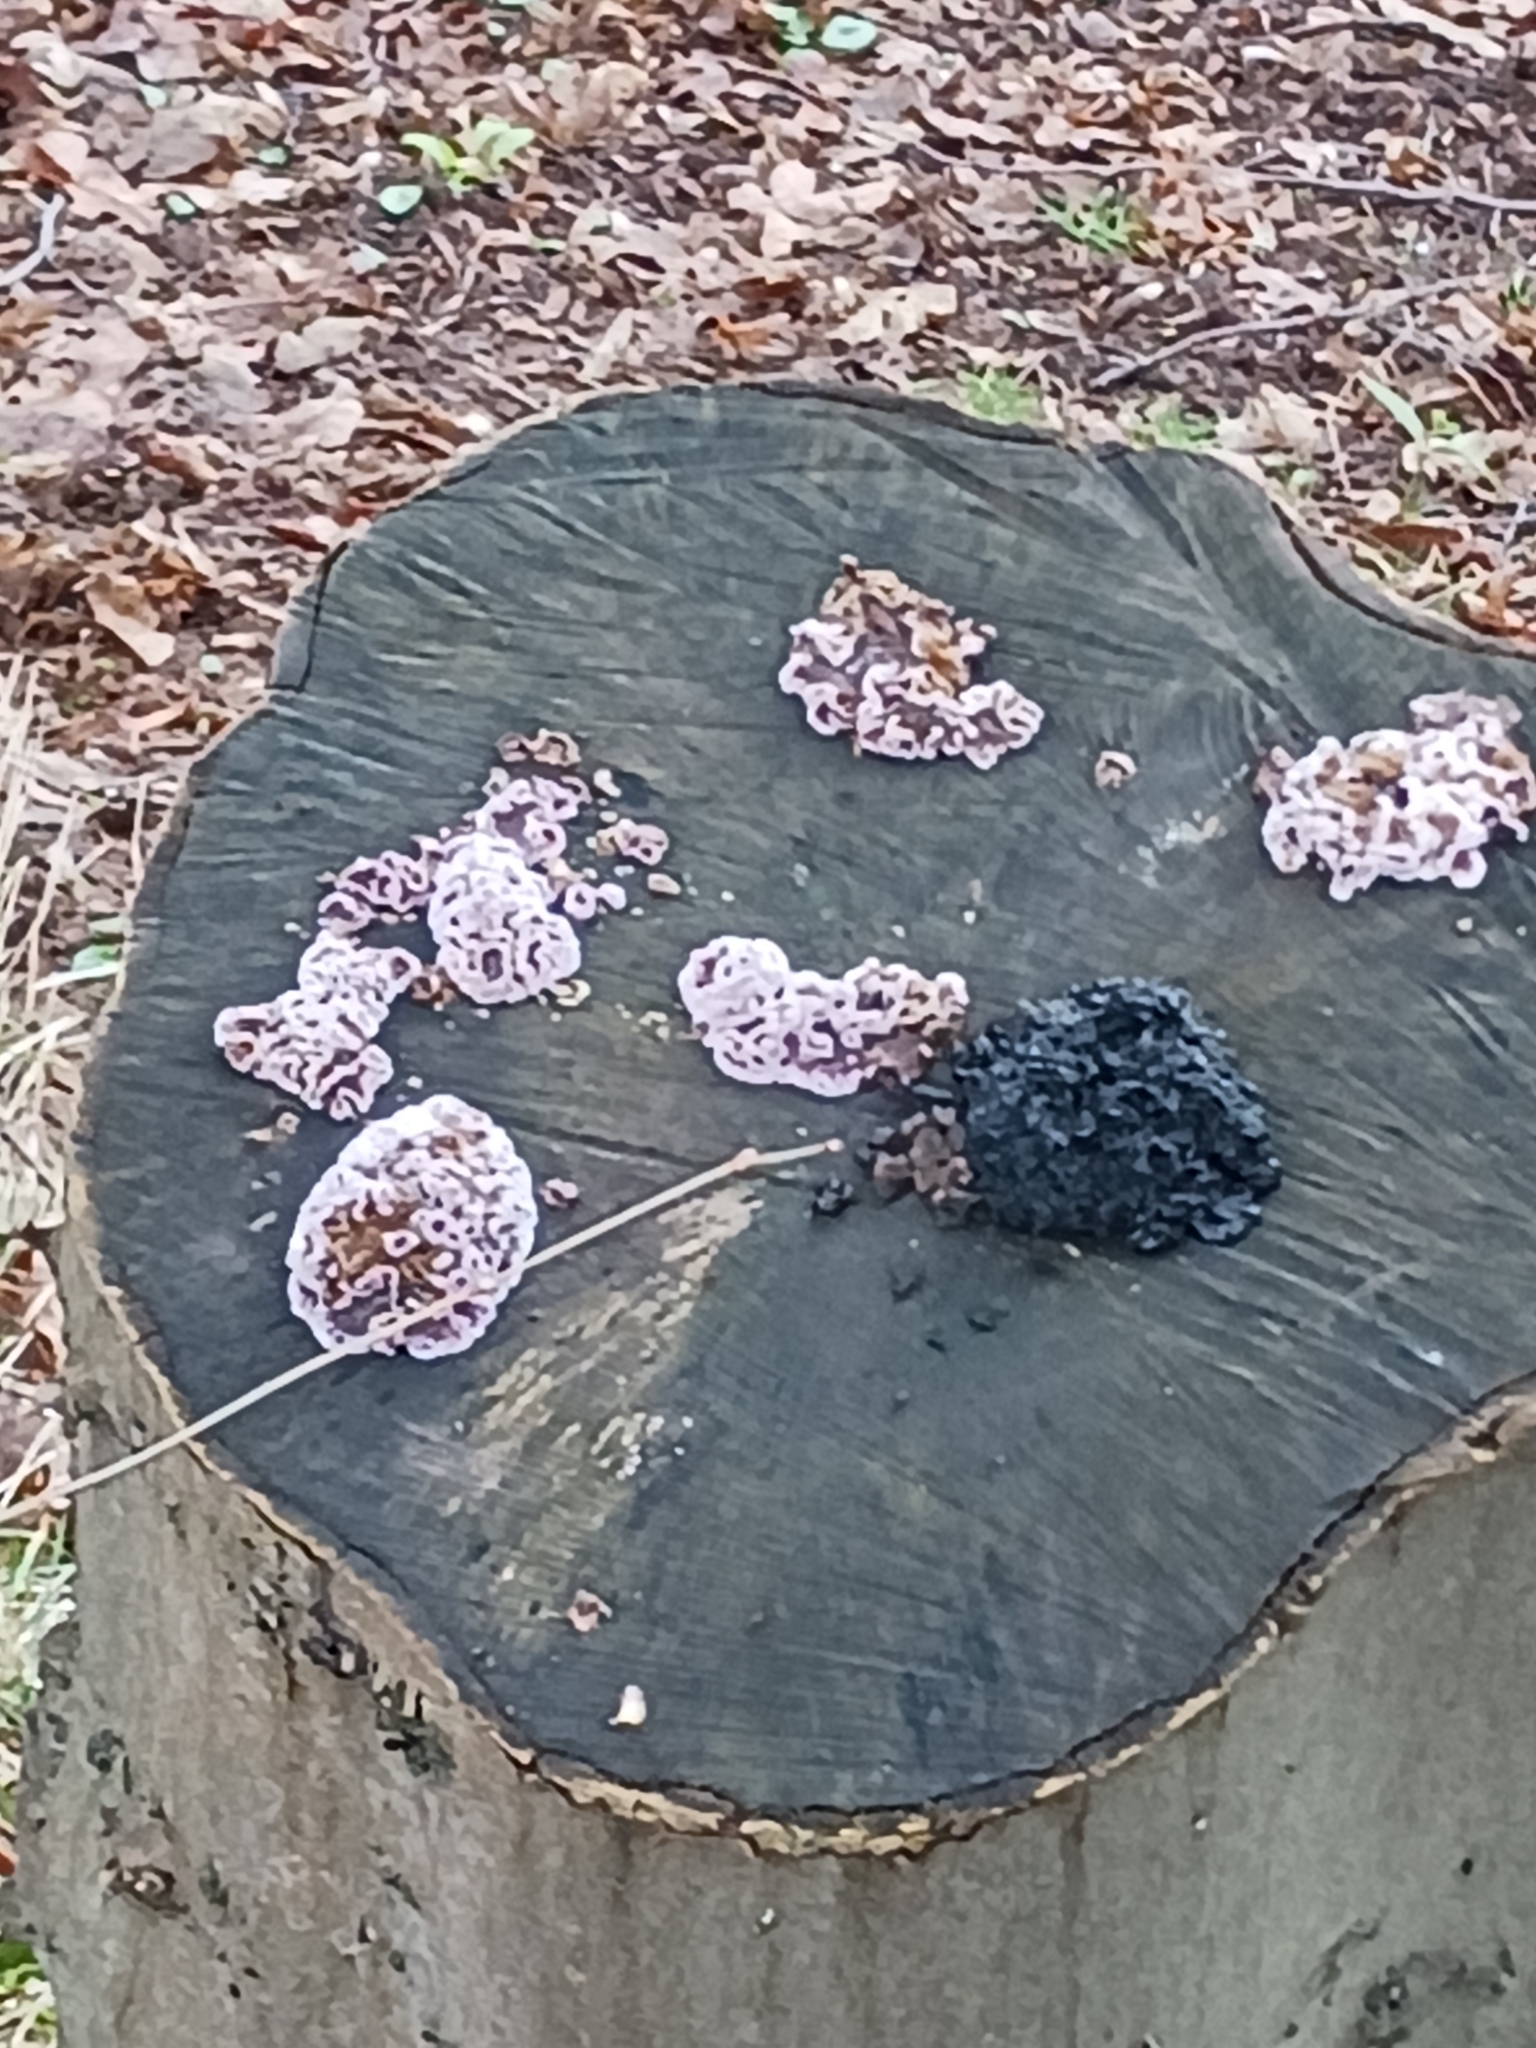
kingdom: Fungi
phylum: Basidiomycota
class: Agaricomycetes
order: Agaricales
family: Cyphellaceae
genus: Chondrostereum
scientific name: Chondrostereum purpureum
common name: Silver leaf disease
